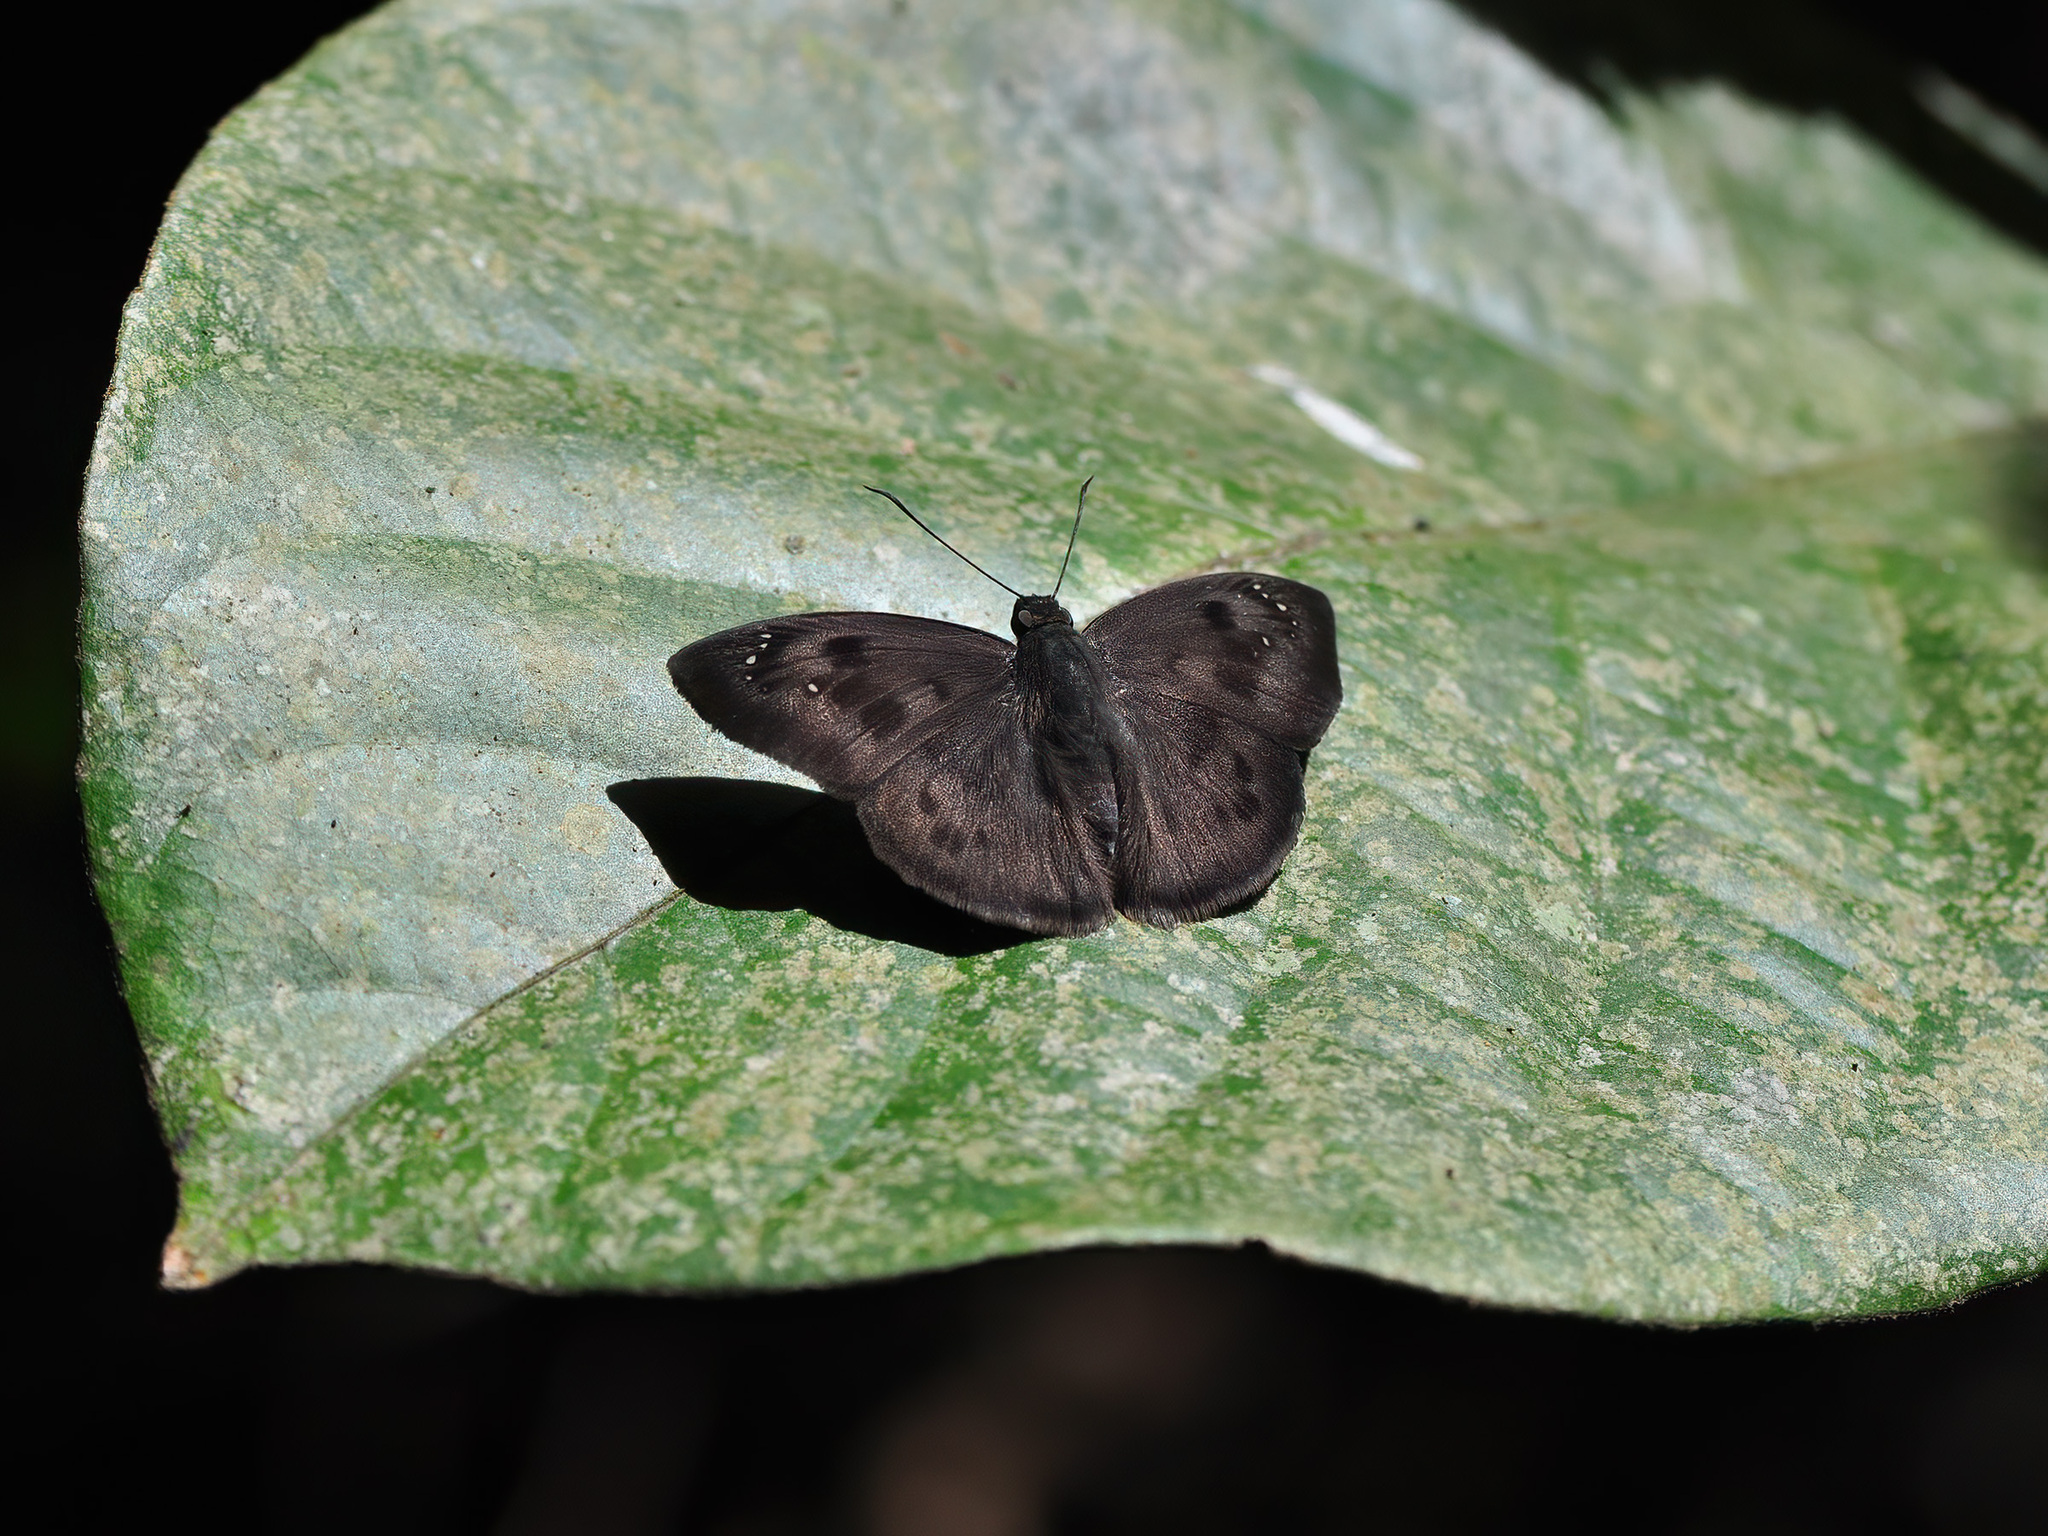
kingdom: Animalia
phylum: Arthropoda
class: Insecta
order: Lepidoptera
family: Hesperiidae
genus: Tagiades
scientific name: Tagiades japetus
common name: Pied flat
